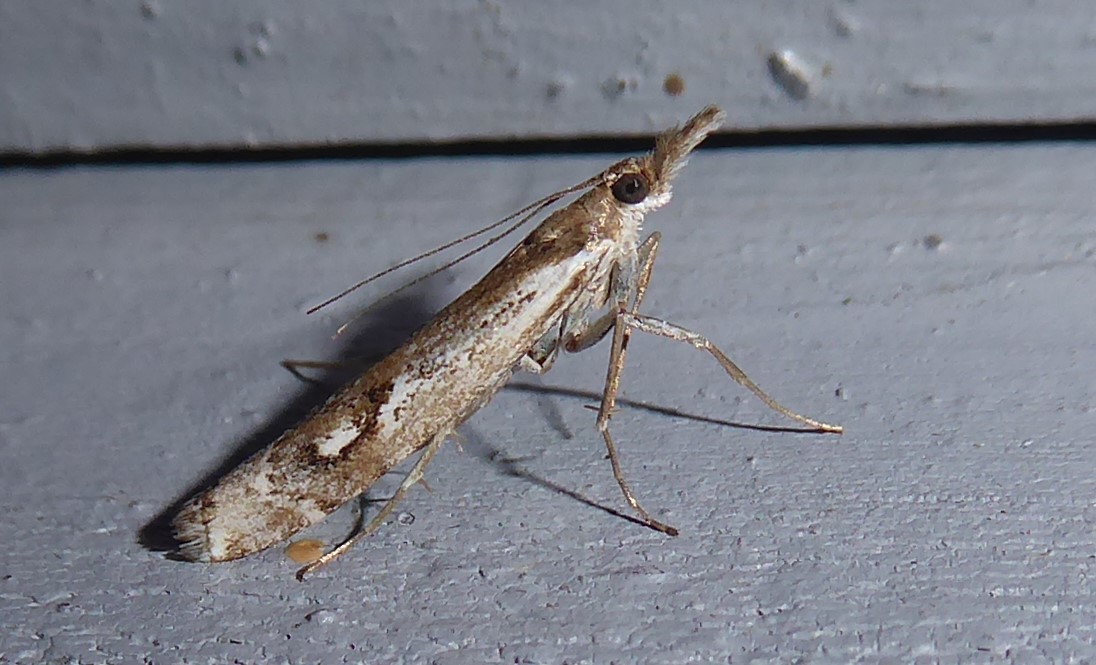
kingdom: Animalia
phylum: Arthropoda
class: Insecta
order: Lepidoptera
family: Crambidae
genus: Orocrambus
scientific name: Orocrambus vulgaris
